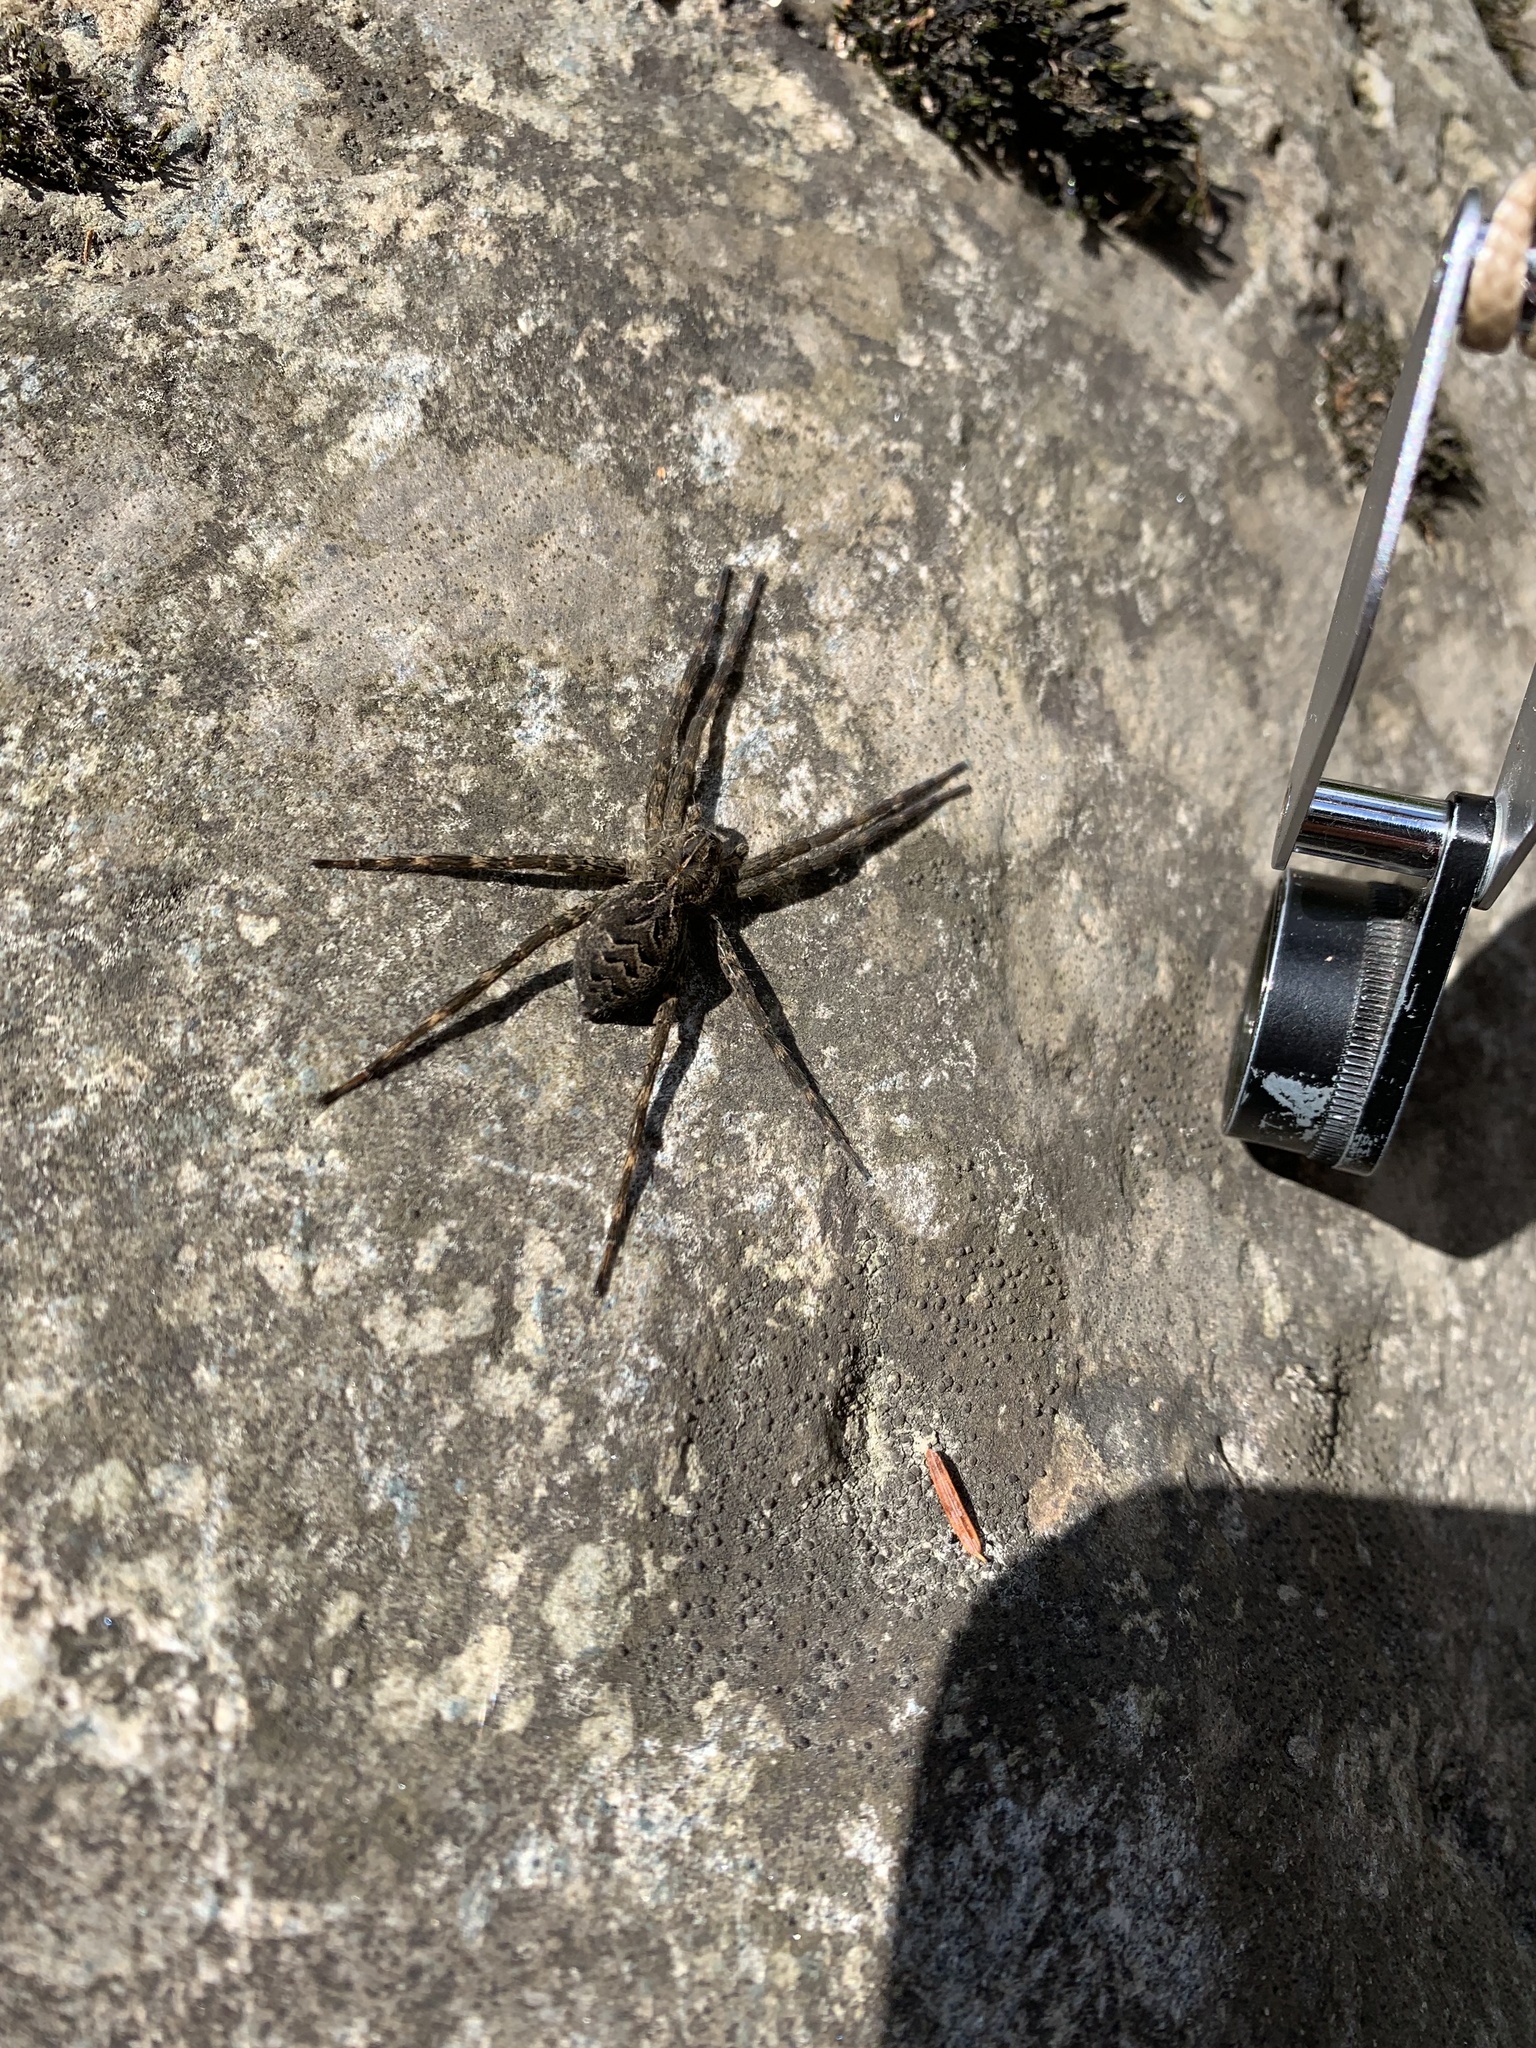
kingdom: Animalia
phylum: Arthropoda
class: Arachnida
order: Araneae
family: Pisauridae
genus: Dolomedes
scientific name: Dolomedes scriptus
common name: Striped fishing spider
